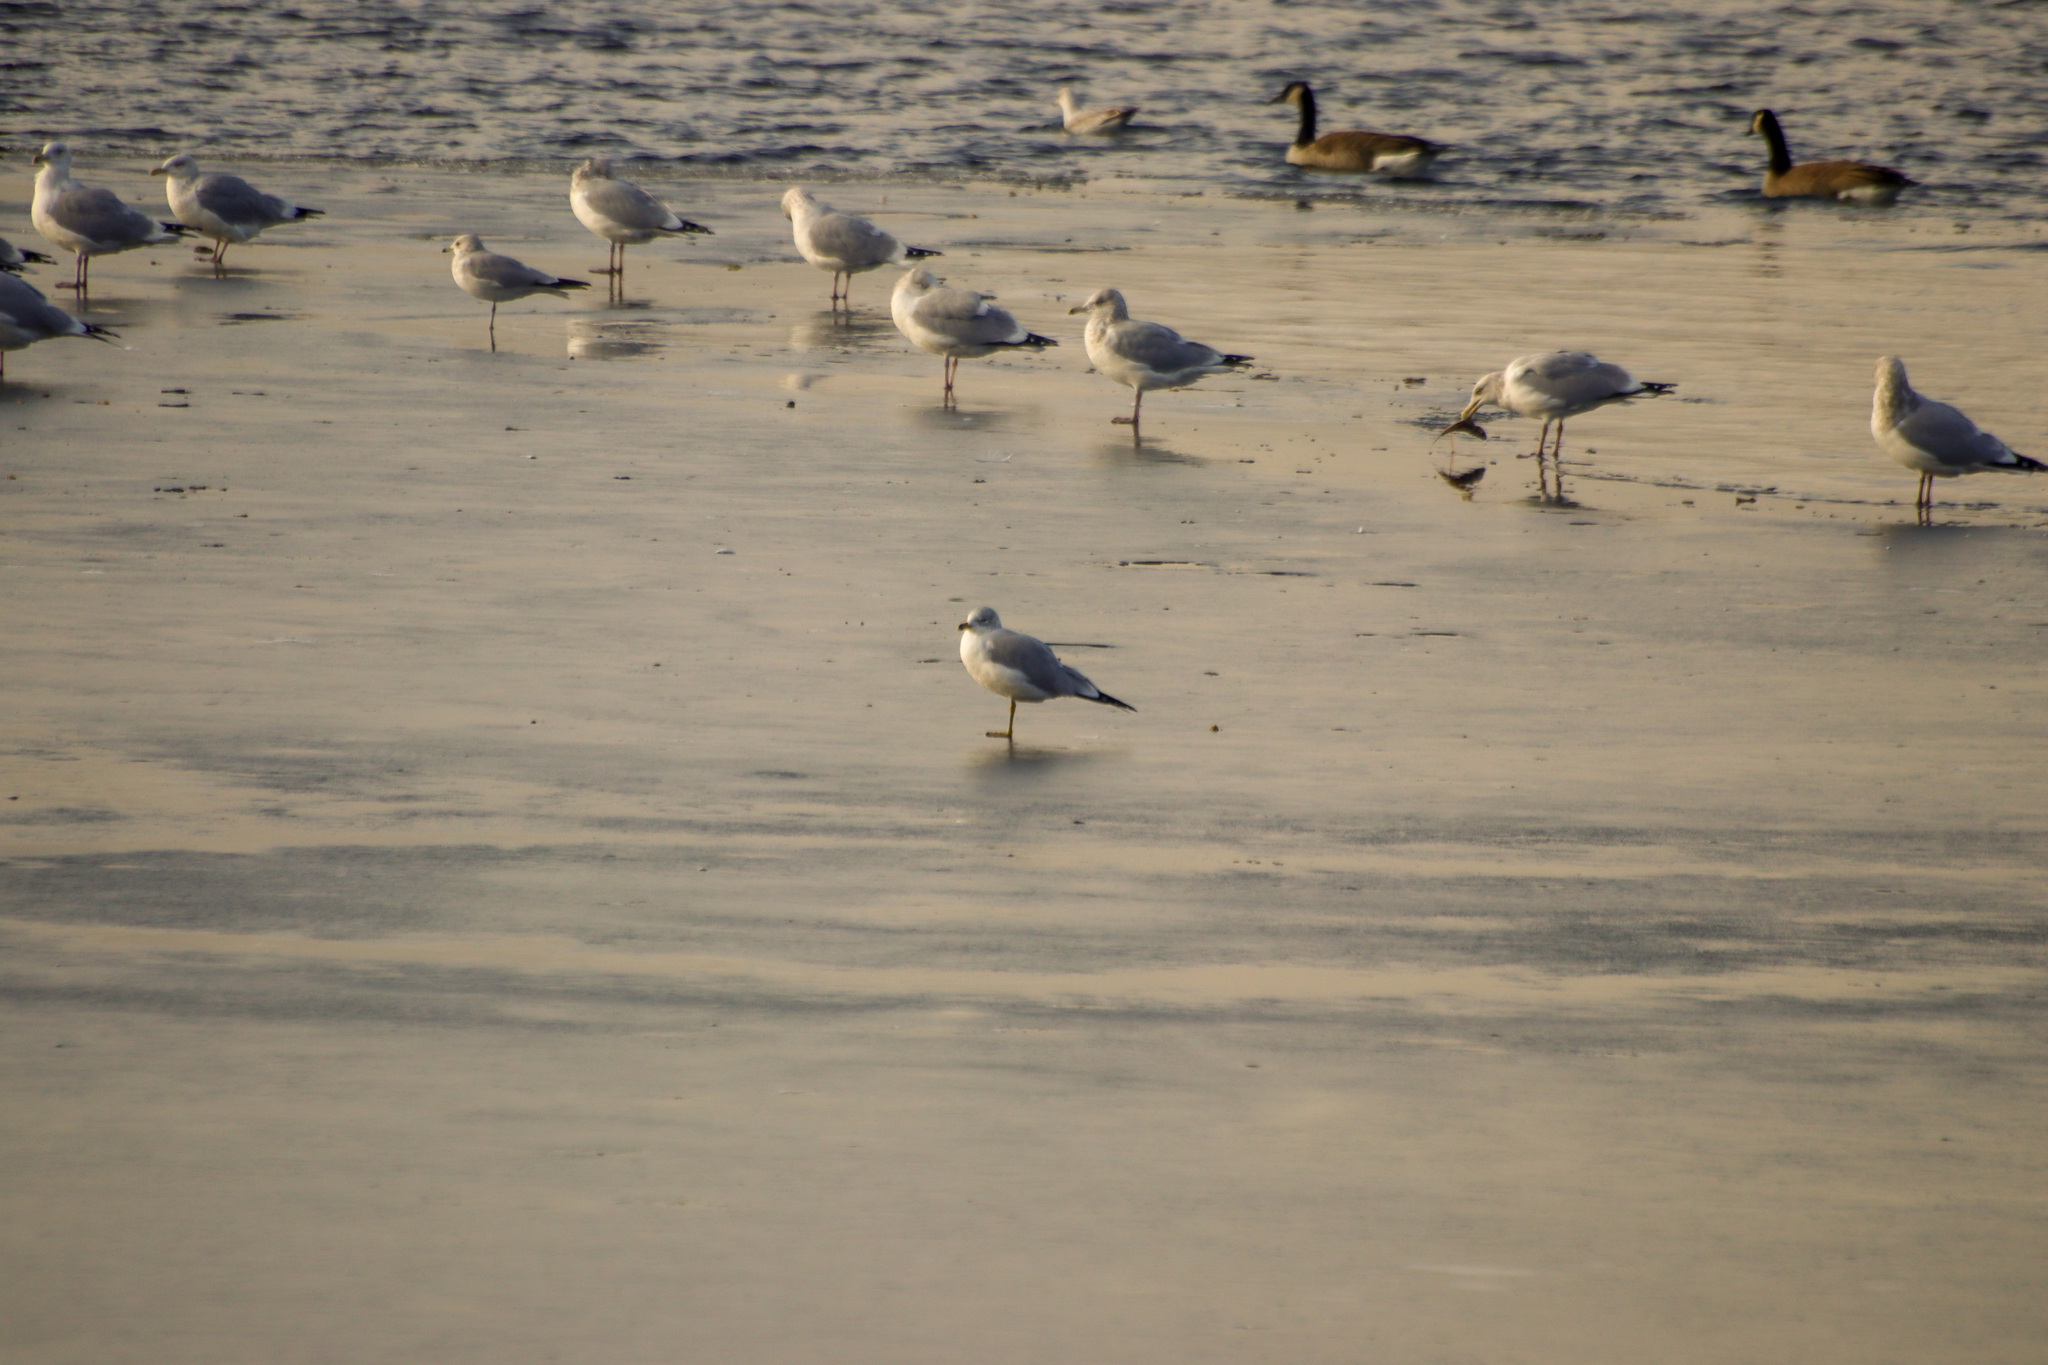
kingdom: Animalia
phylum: Chordata
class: Aves
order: Charadriiformes
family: Laridae
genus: Larus
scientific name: Larus delawarensis
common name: Ring-billed gull
